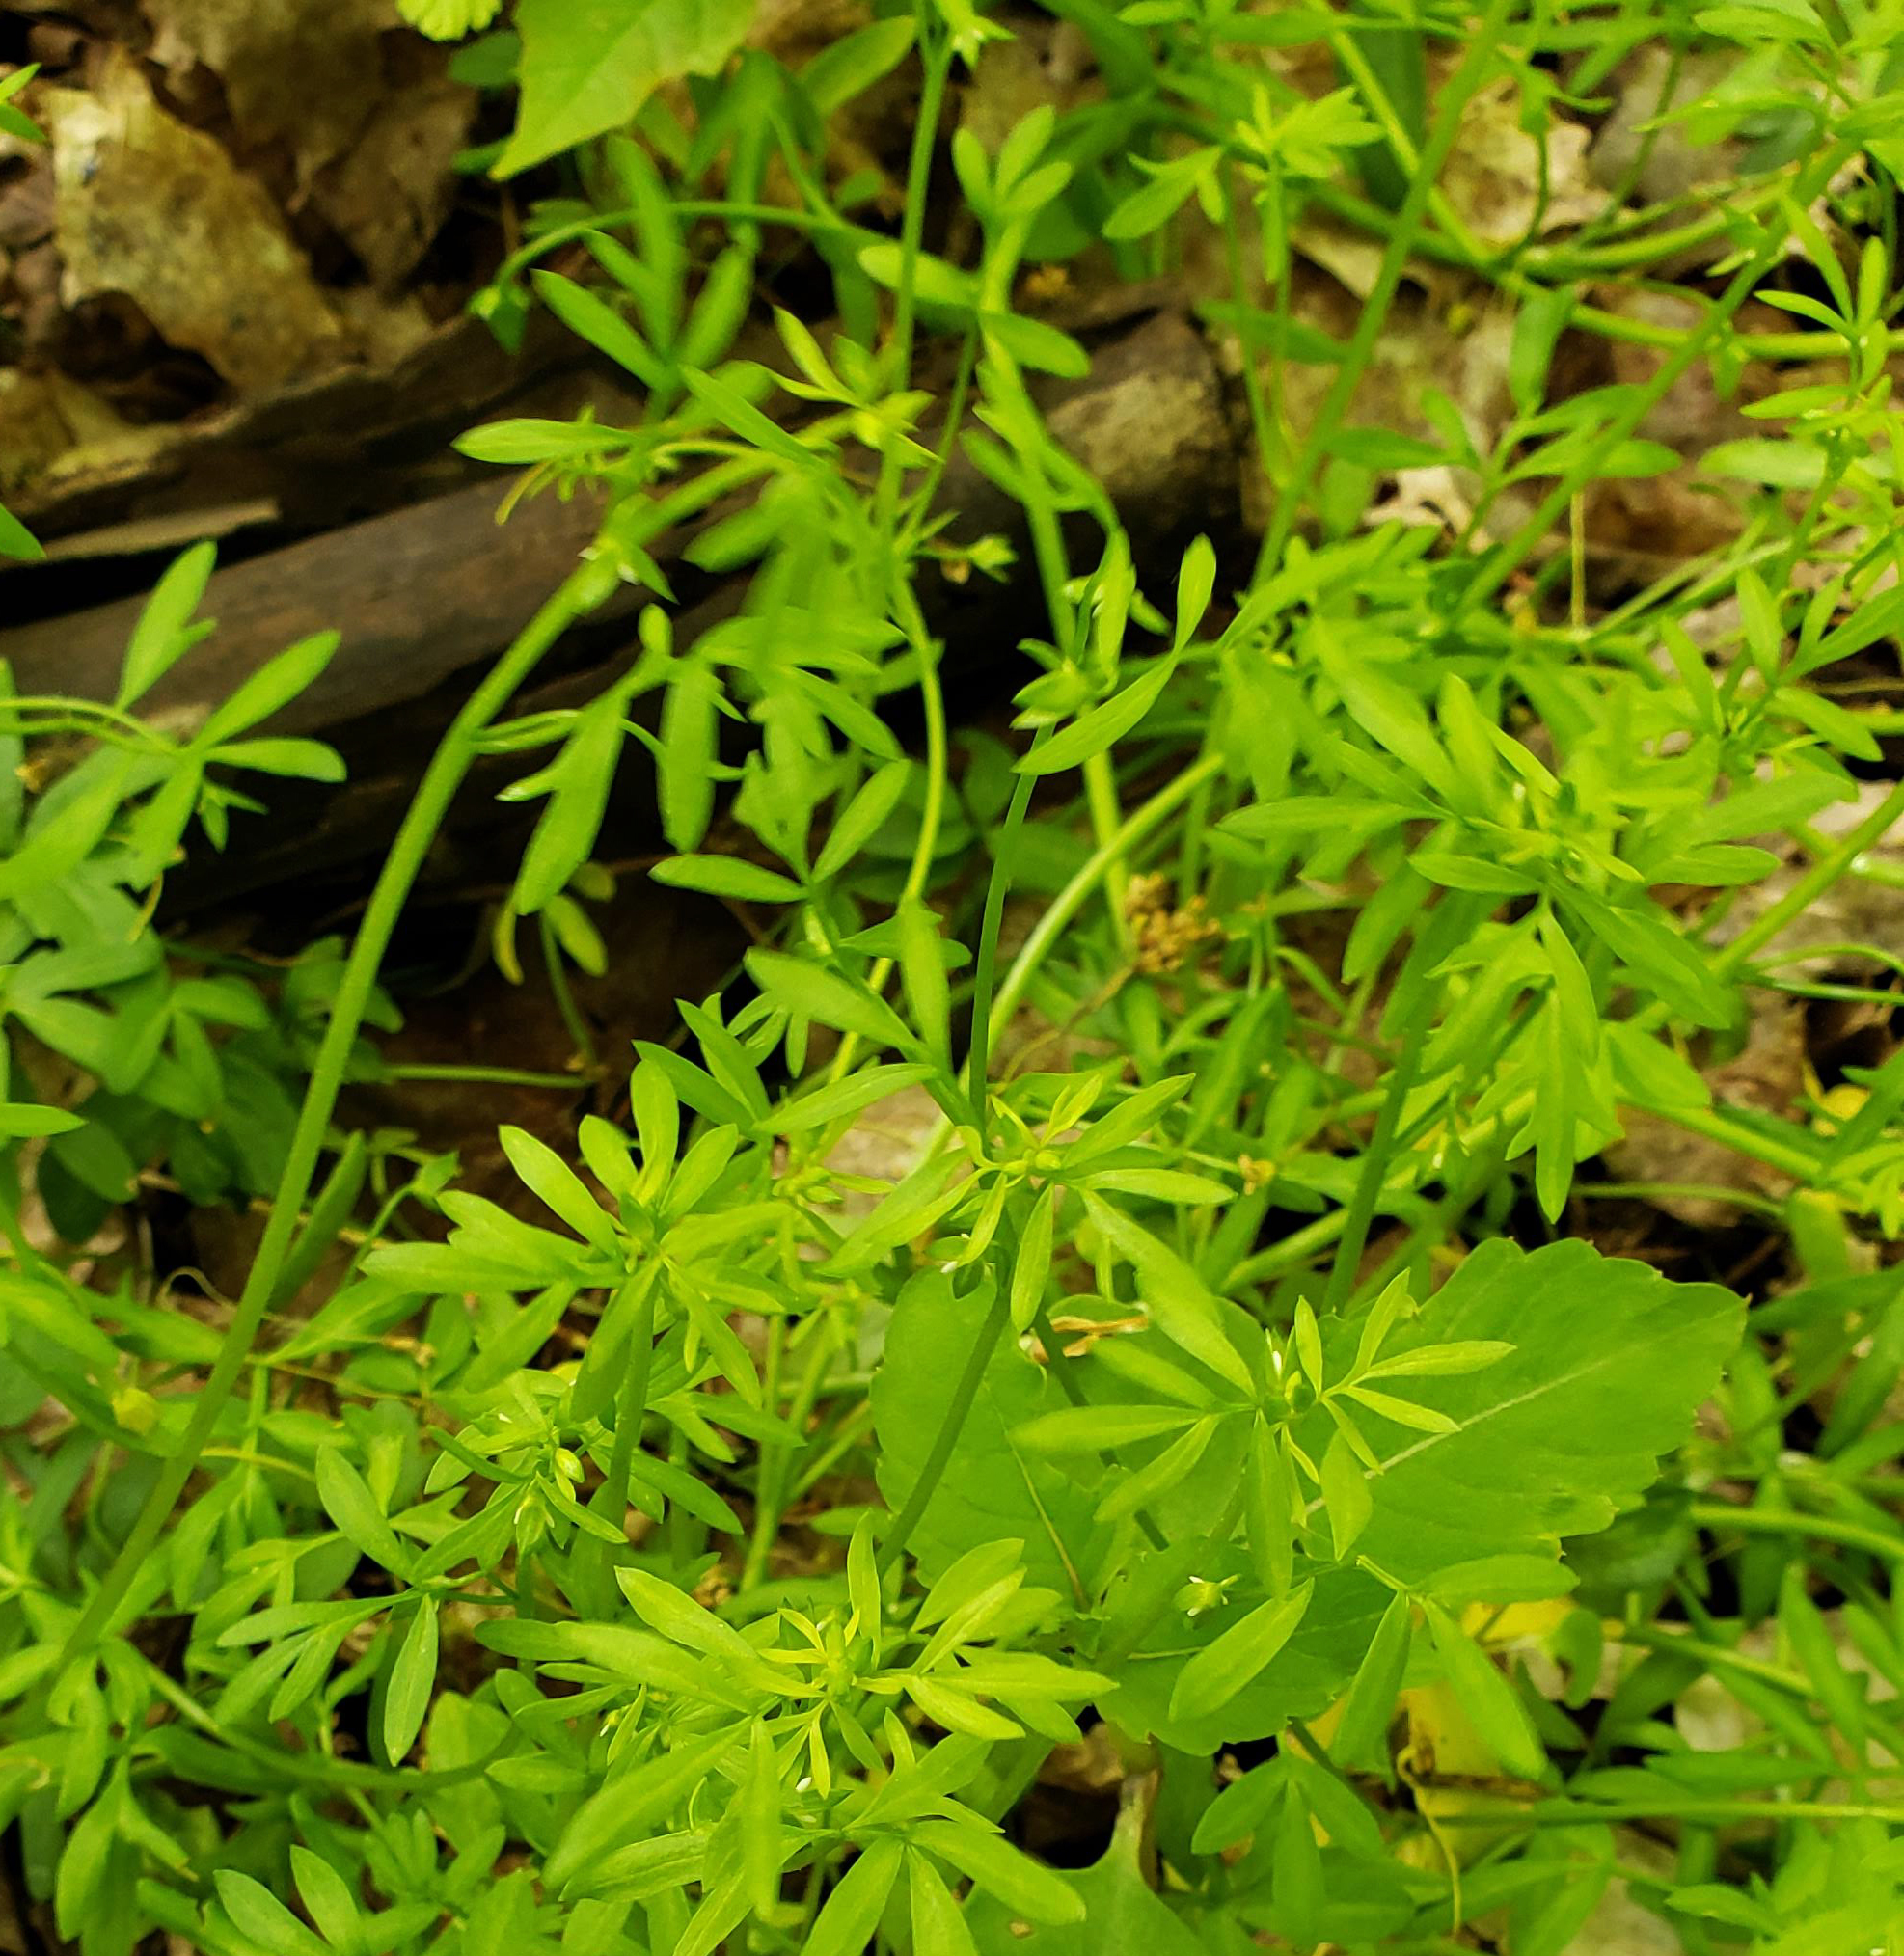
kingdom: Plantae
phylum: Tracheophyta
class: Magnoliopsida
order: Brassicales
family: Limnanthaceae
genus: Floerkea
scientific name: Floerkea proserpinacoides
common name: False mermaid
